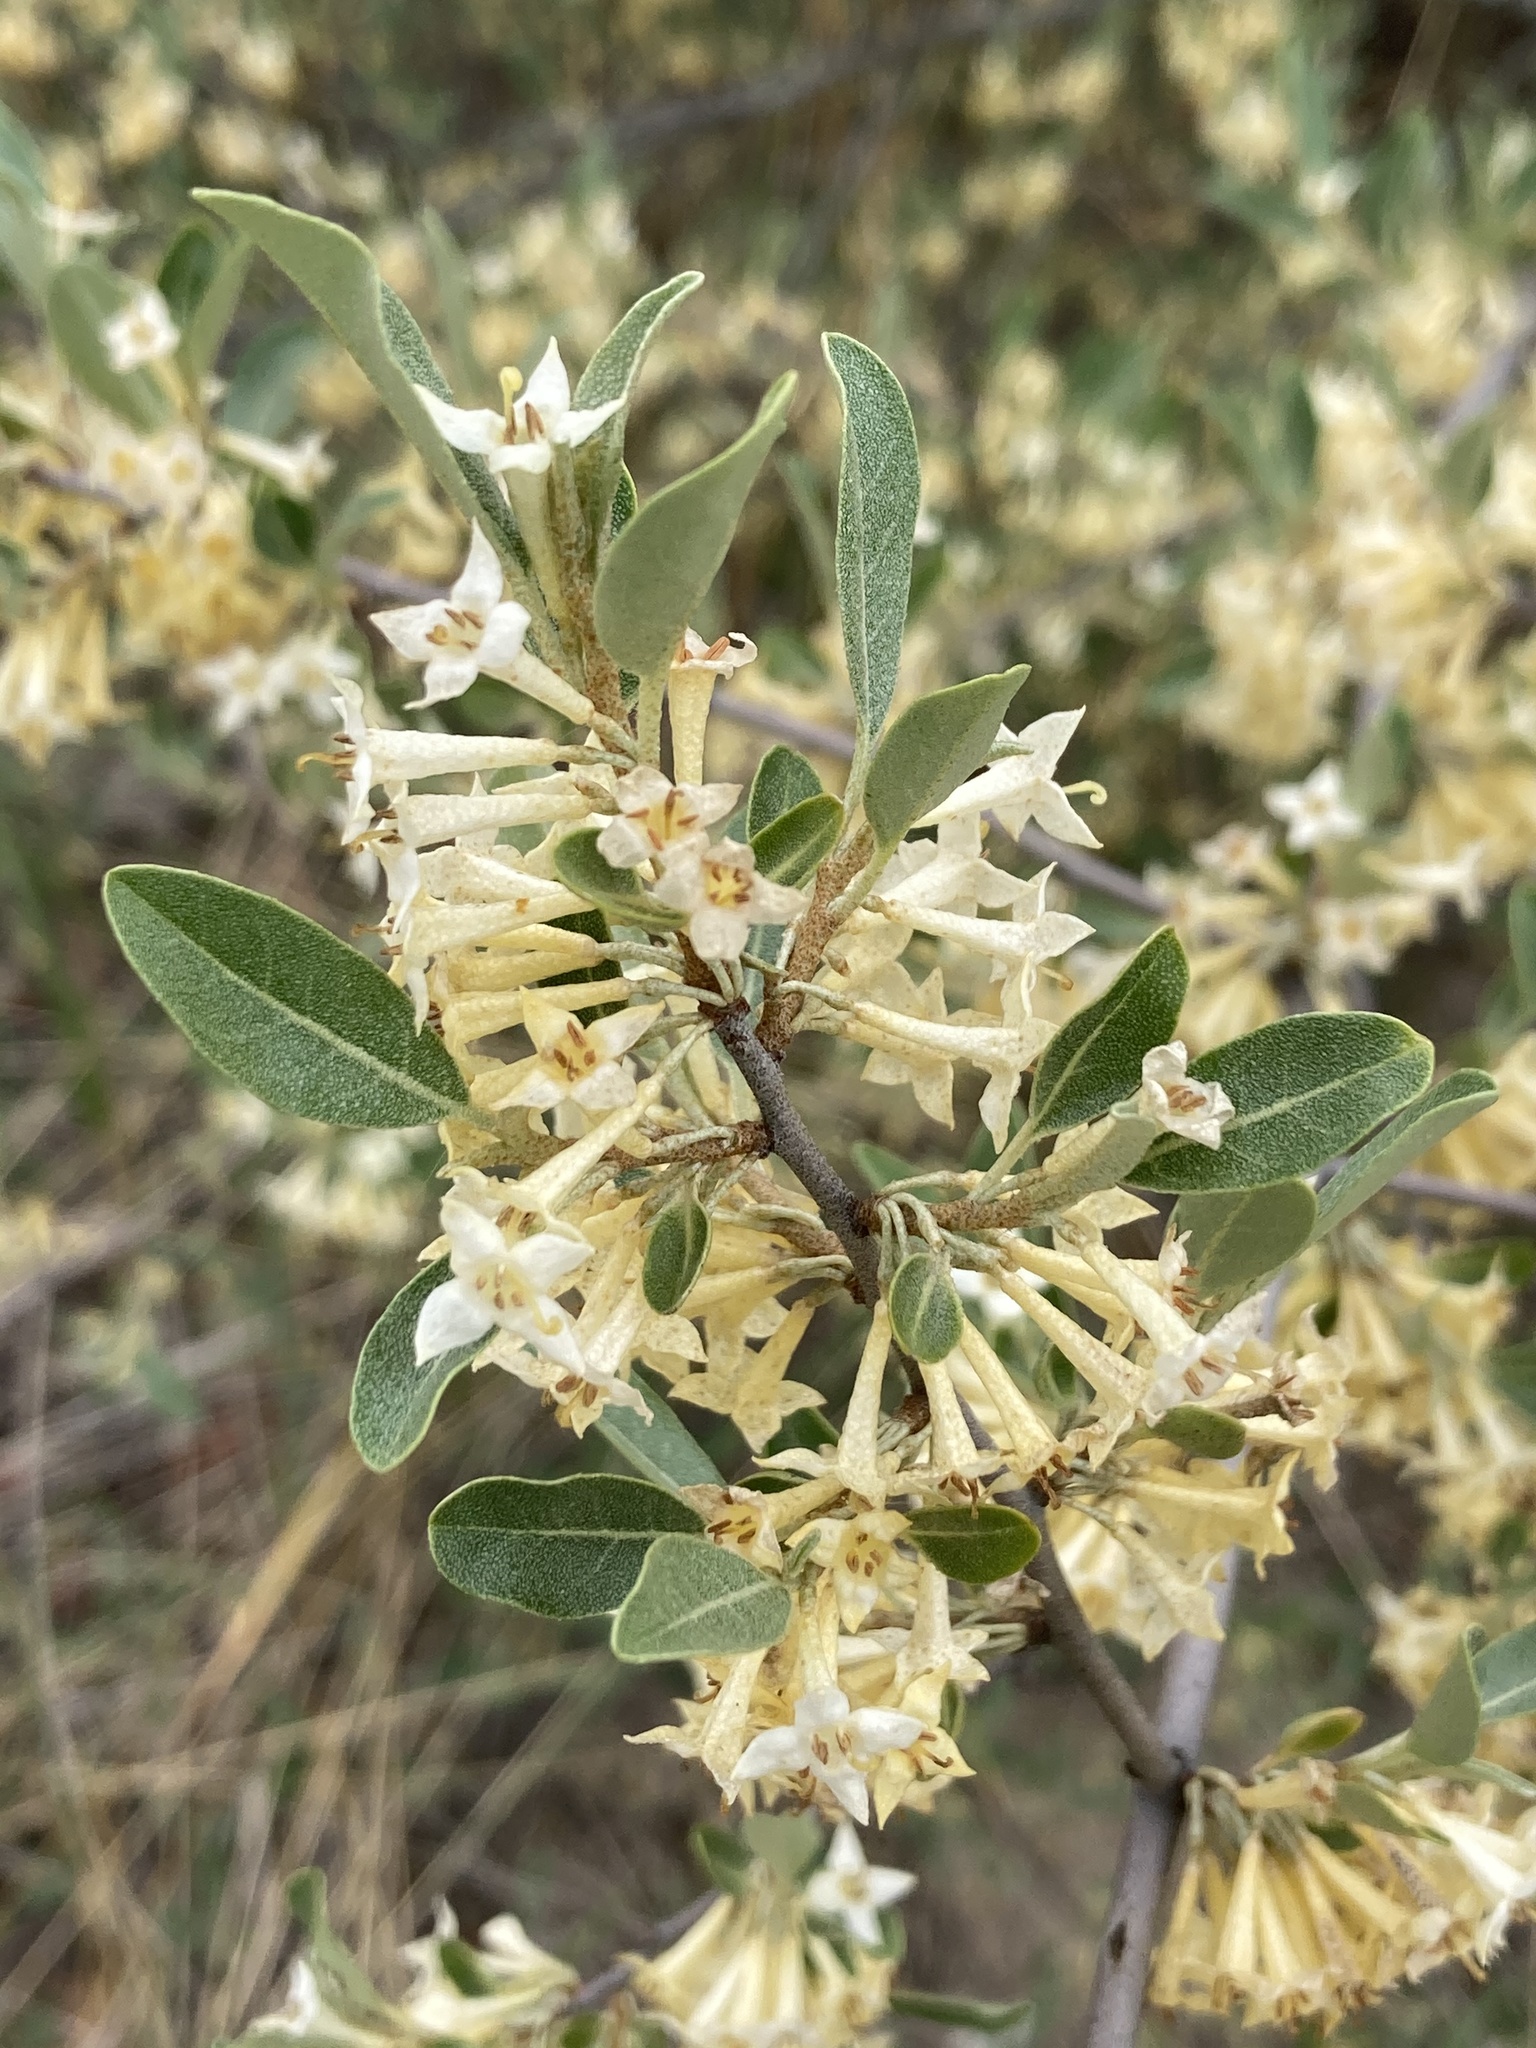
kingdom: Plantae
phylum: Tracheophyta
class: Magnoliopsida
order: Rosales
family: Elaeagnaceae
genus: Elaeagnus
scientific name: Elaeagnus umbellata
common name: Autumn olive
